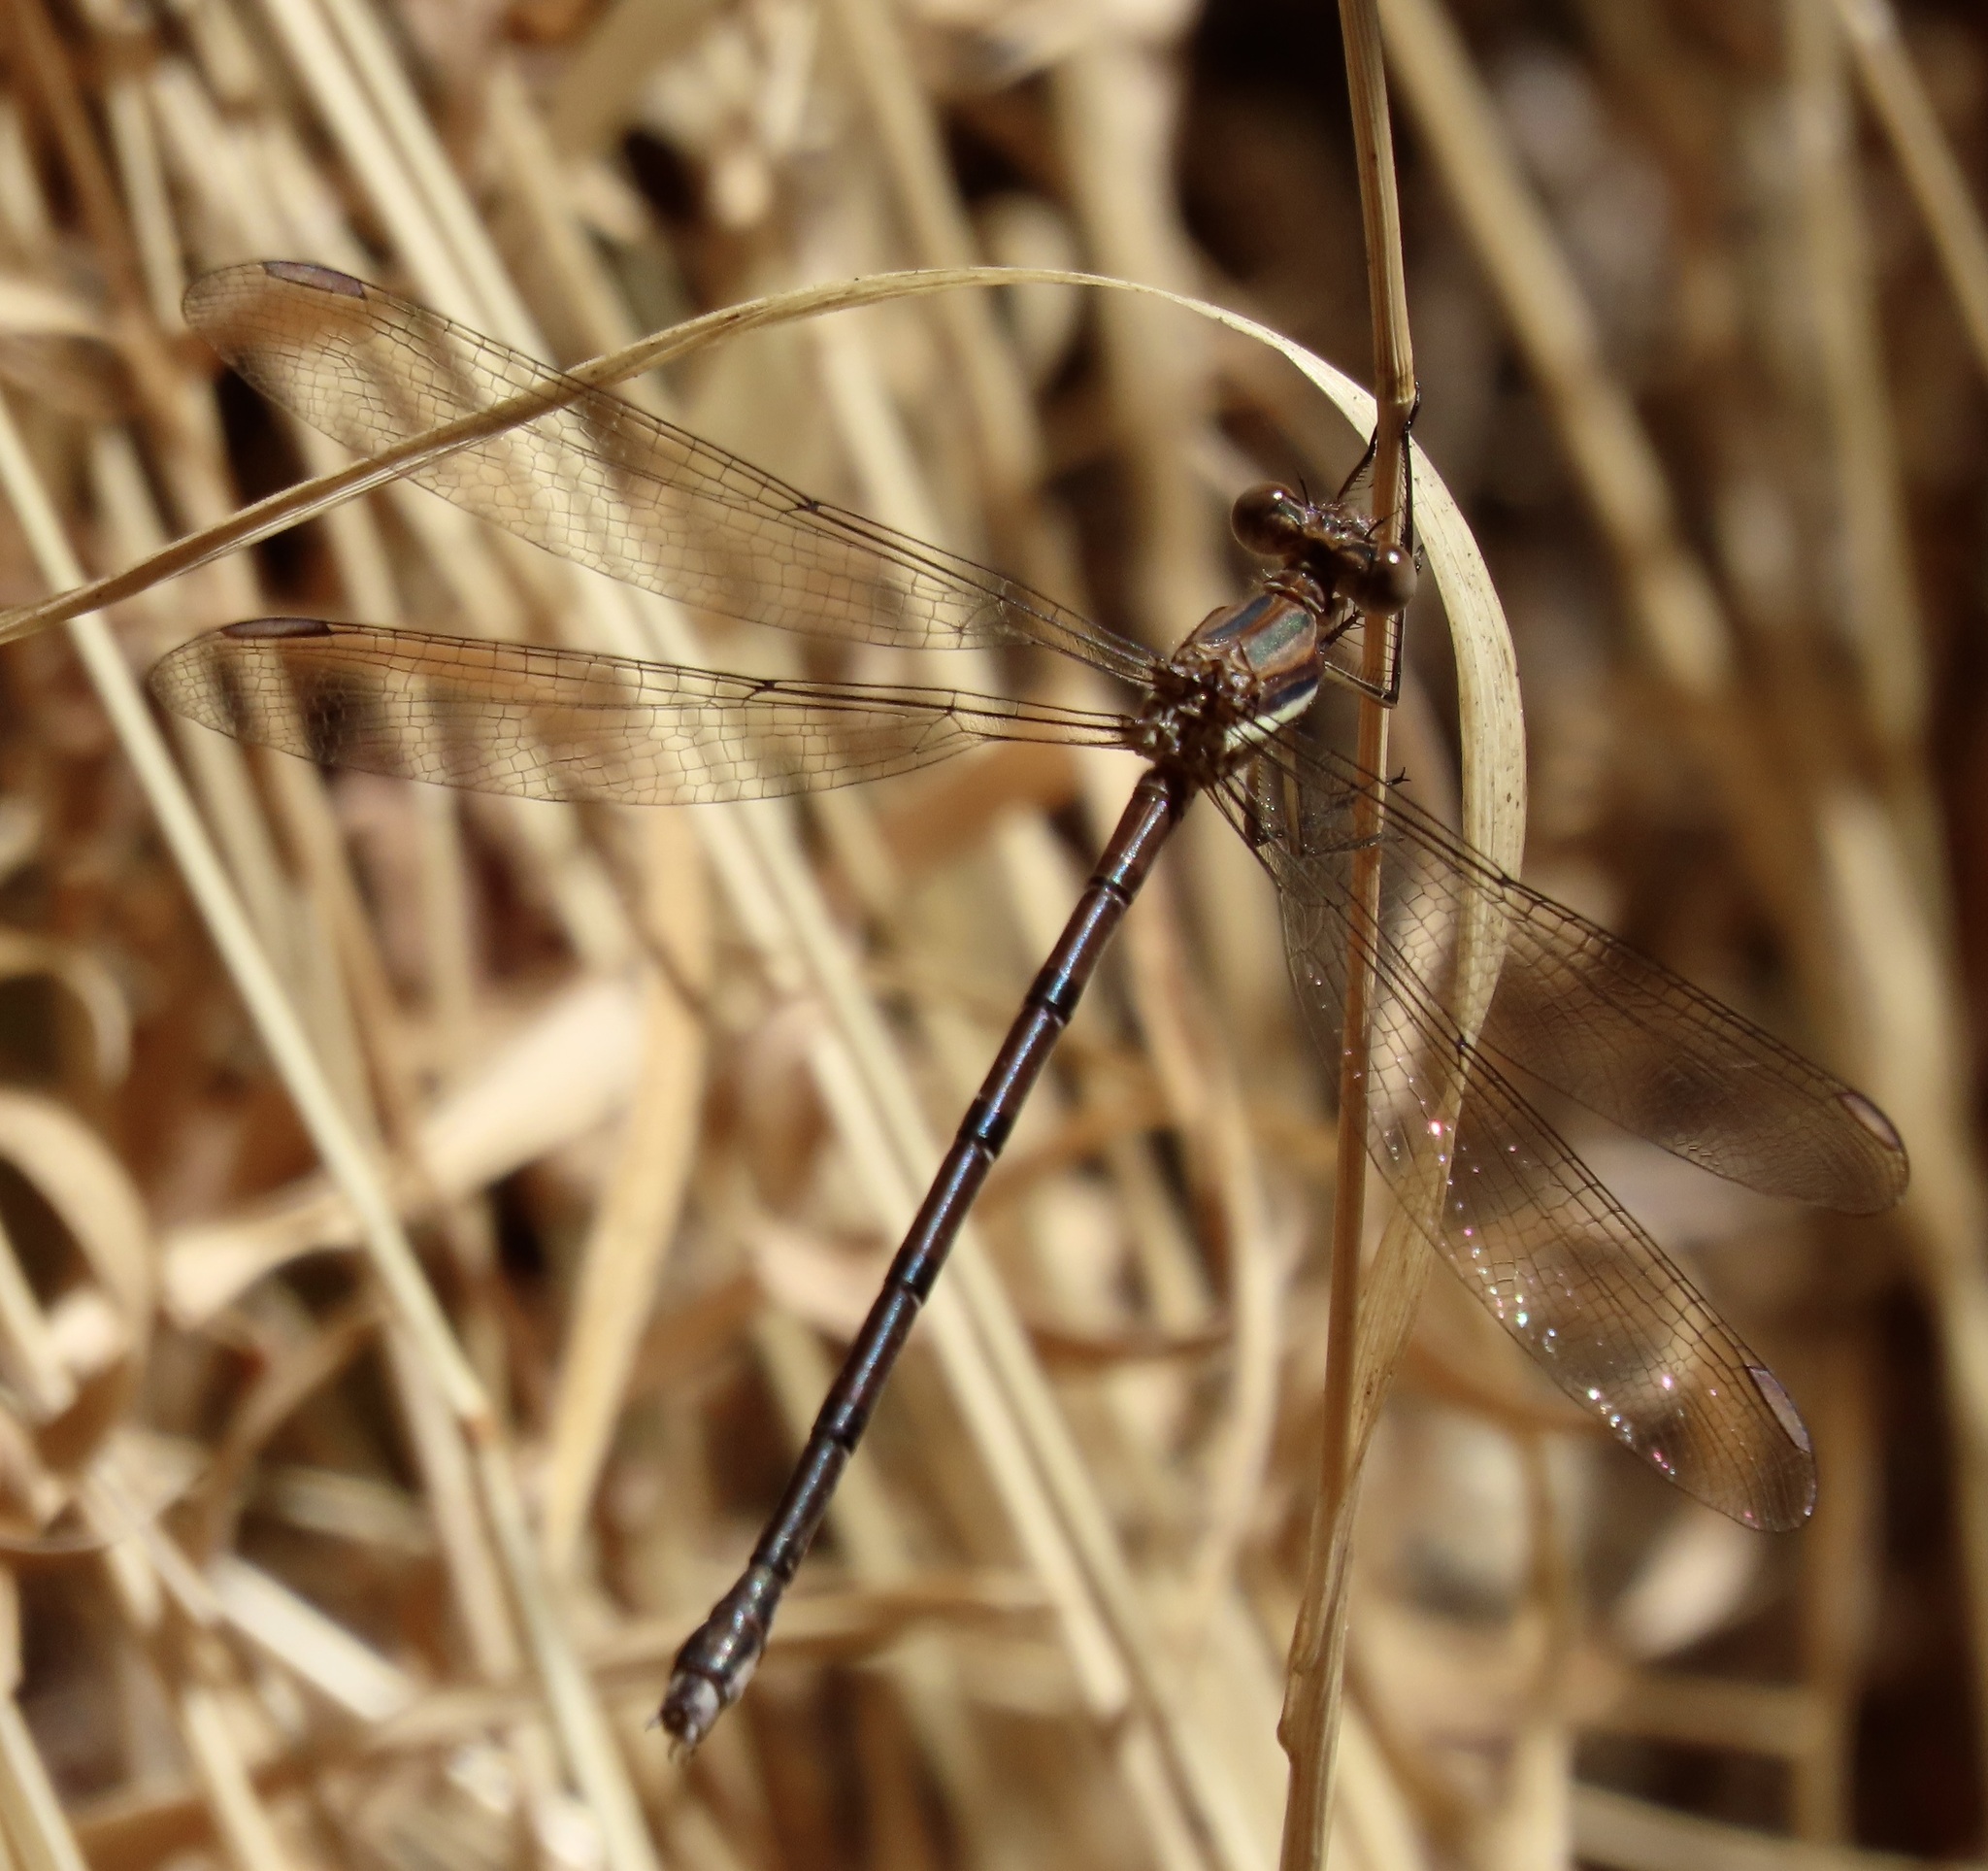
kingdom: Animalia
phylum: Arthropoda
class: Insecta
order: Odonata
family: Lestidae
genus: Archilestes
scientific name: Archilestes grandis
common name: Great spreadwing
